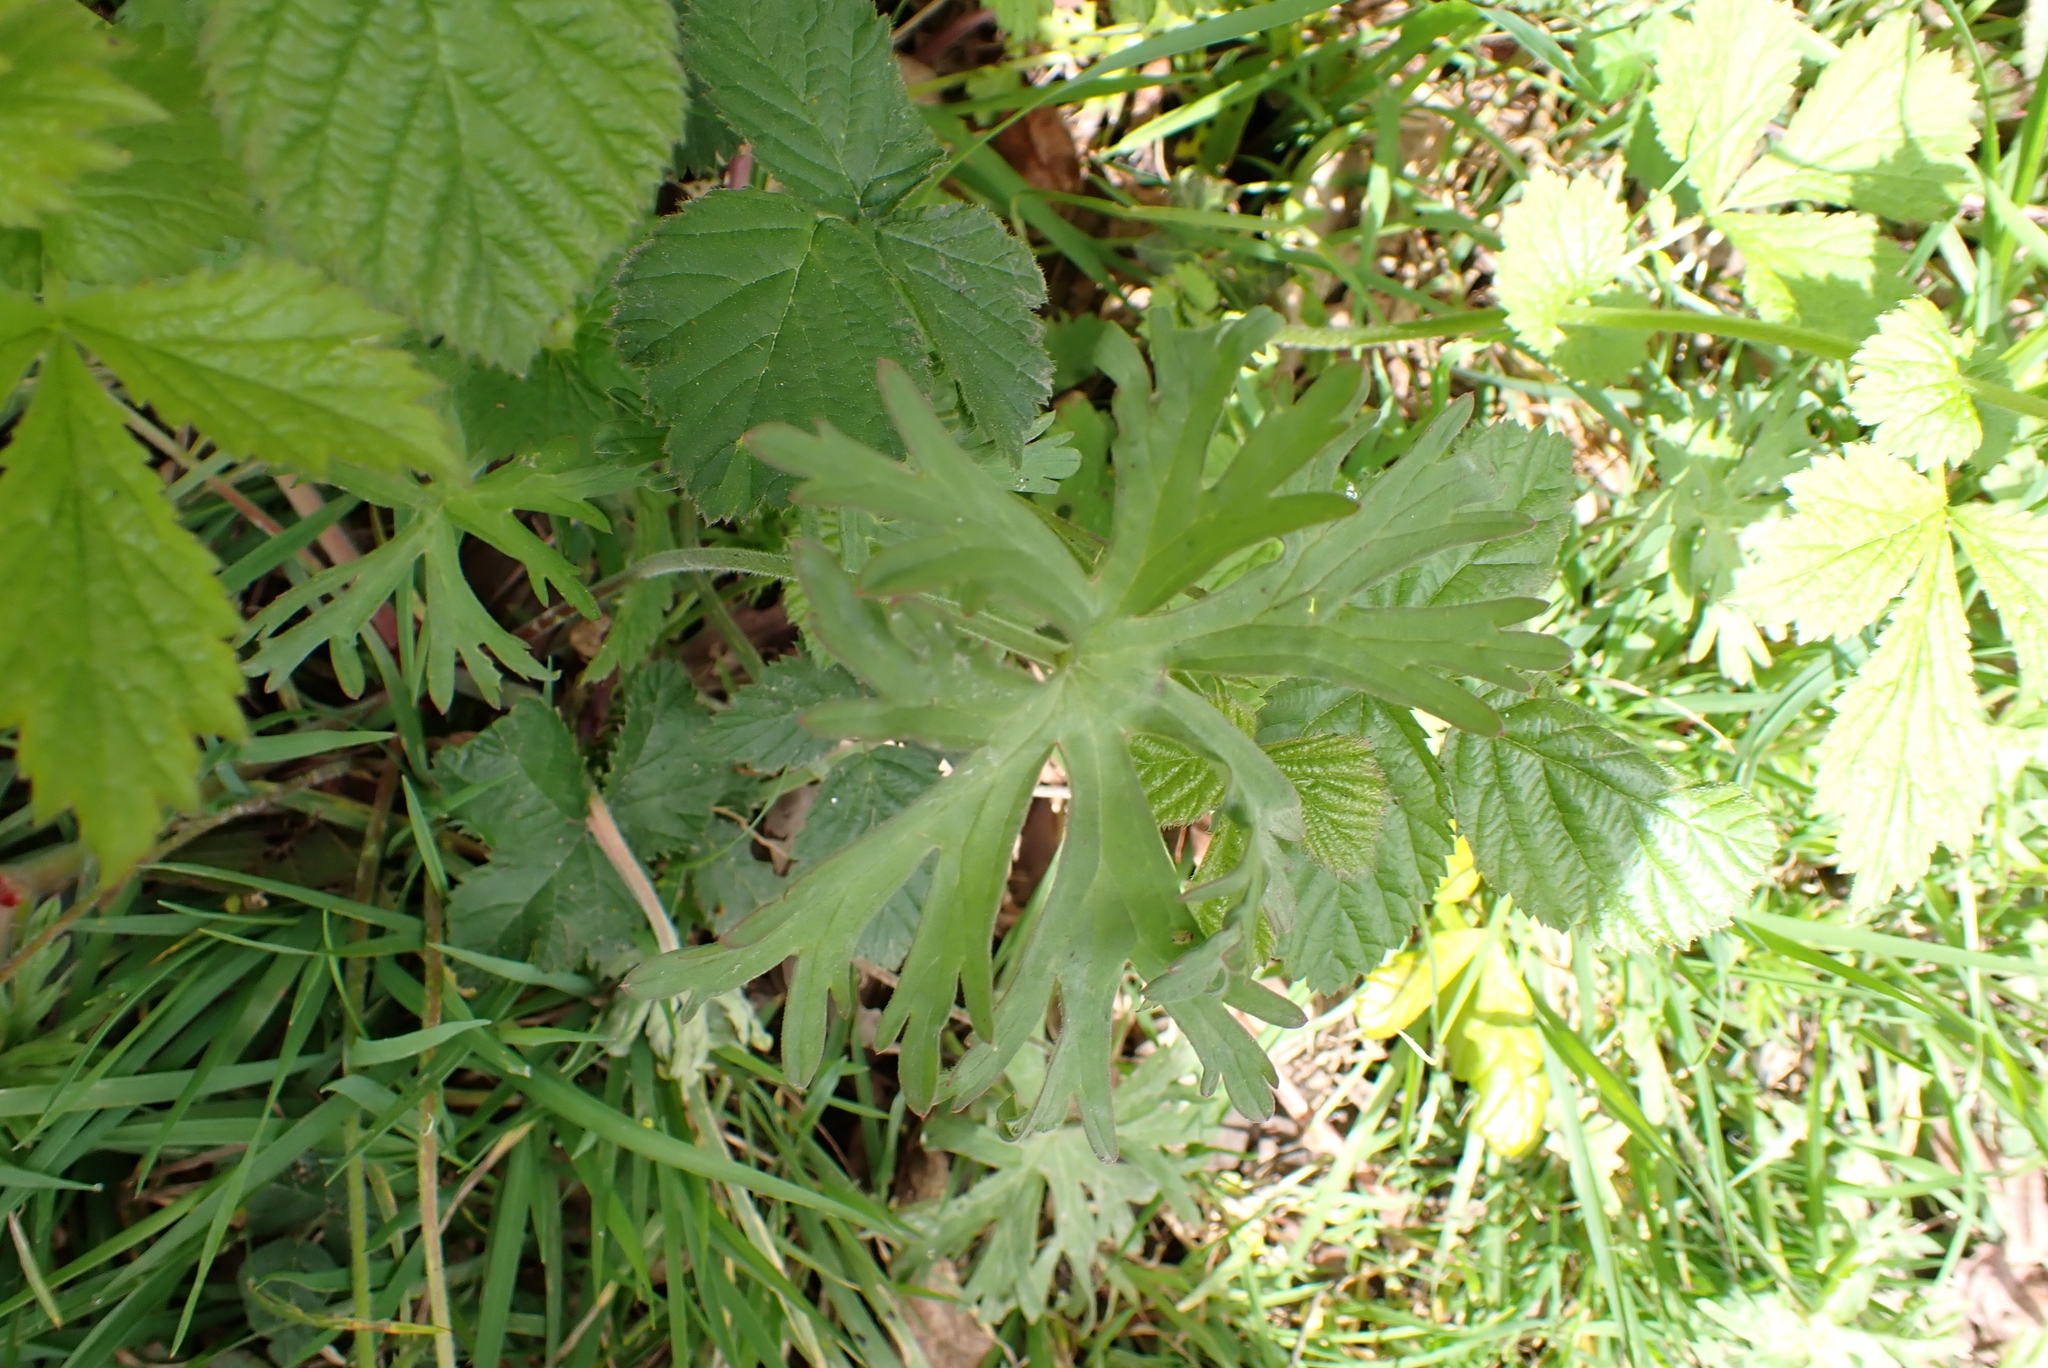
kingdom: Plantae
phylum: Tracheophyta
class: Magnoliopsida
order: Geraniales
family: Geraniaceae
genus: Geranium
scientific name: Geranium dissectum
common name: Cut-leaved crane's-bill
